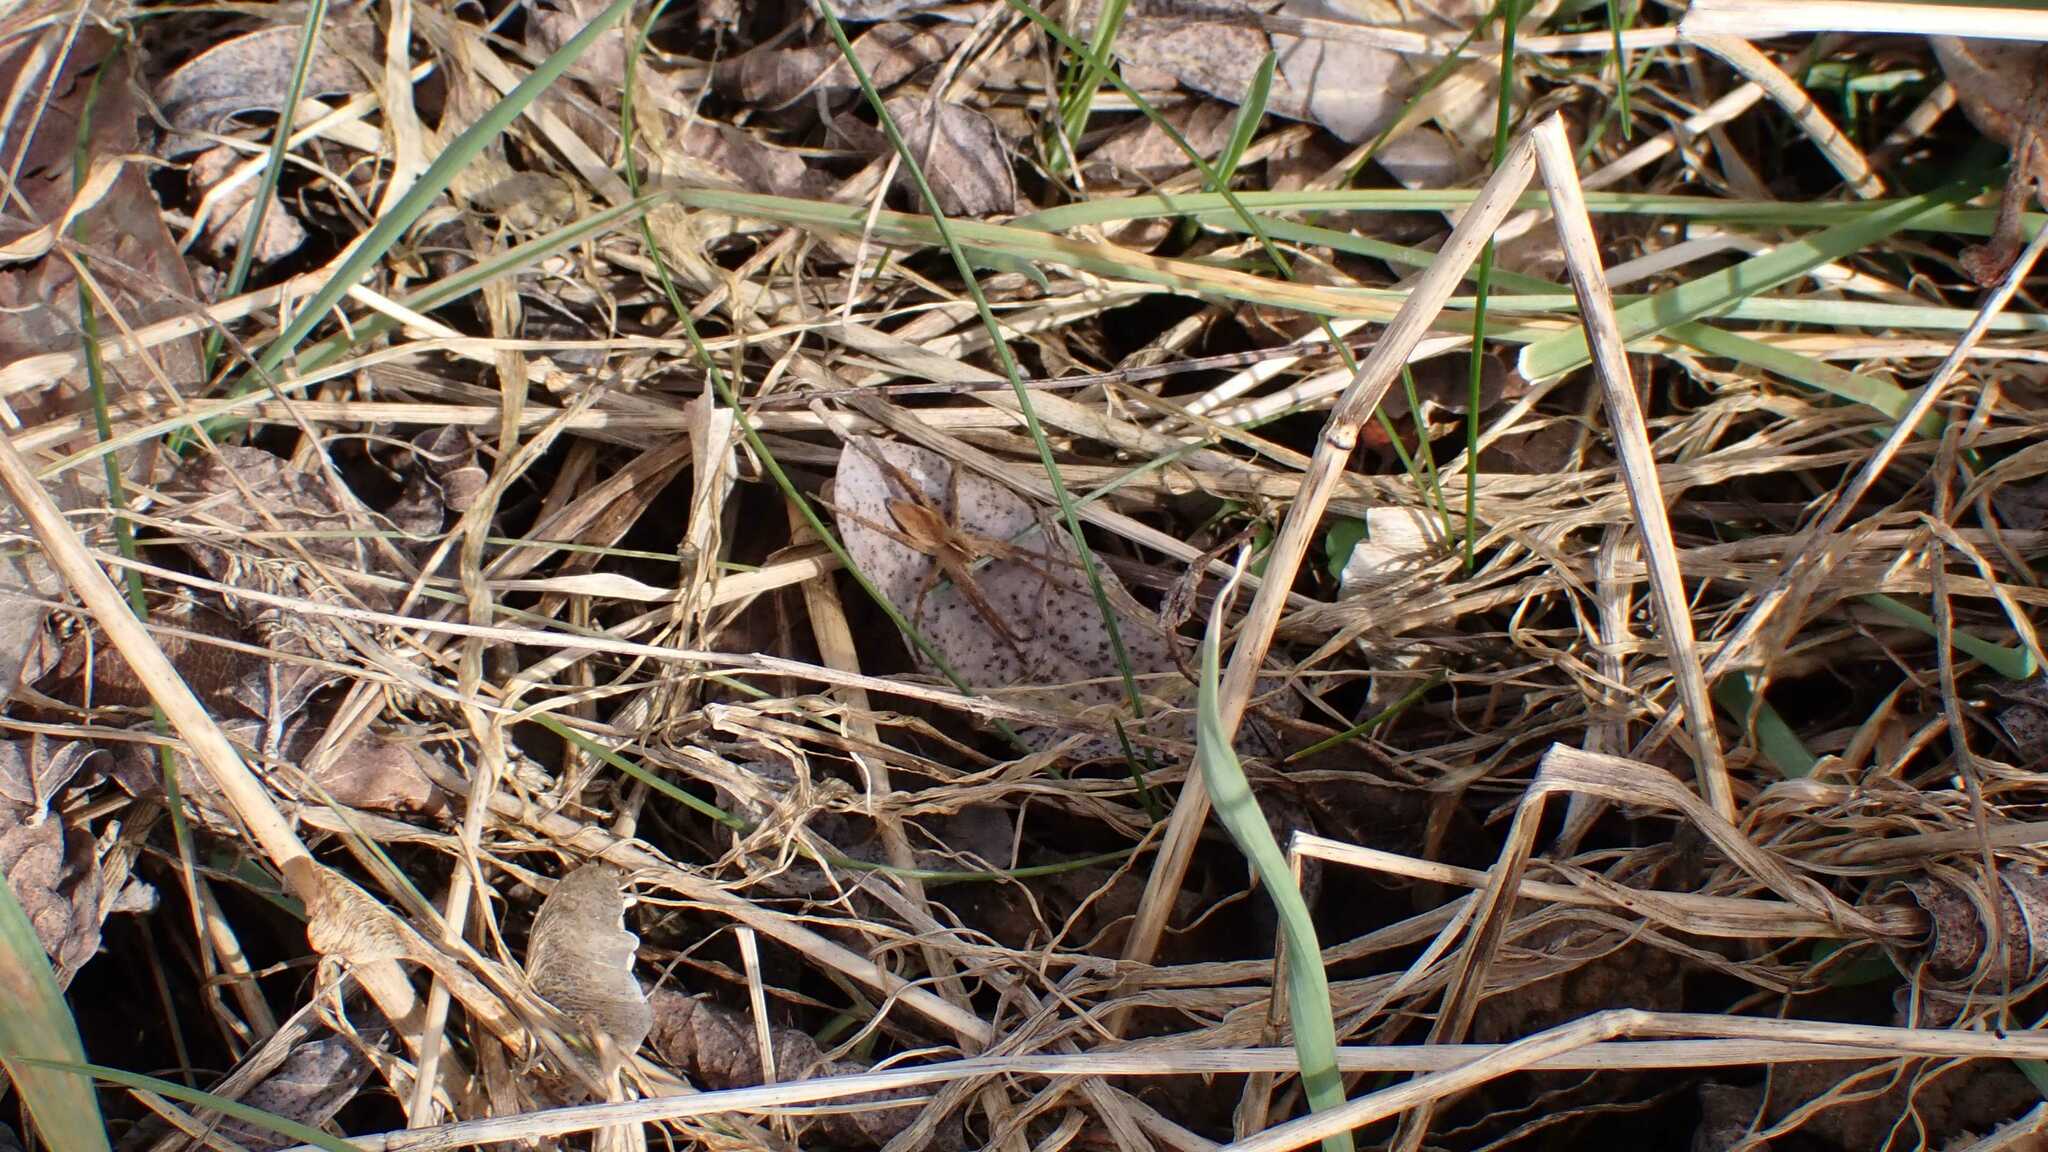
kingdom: Animalia
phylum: Arthropoda
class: Arachnida
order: Araneae
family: Pisauridae
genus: Pisaura
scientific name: Pisaura mirabilis
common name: Tent spider
